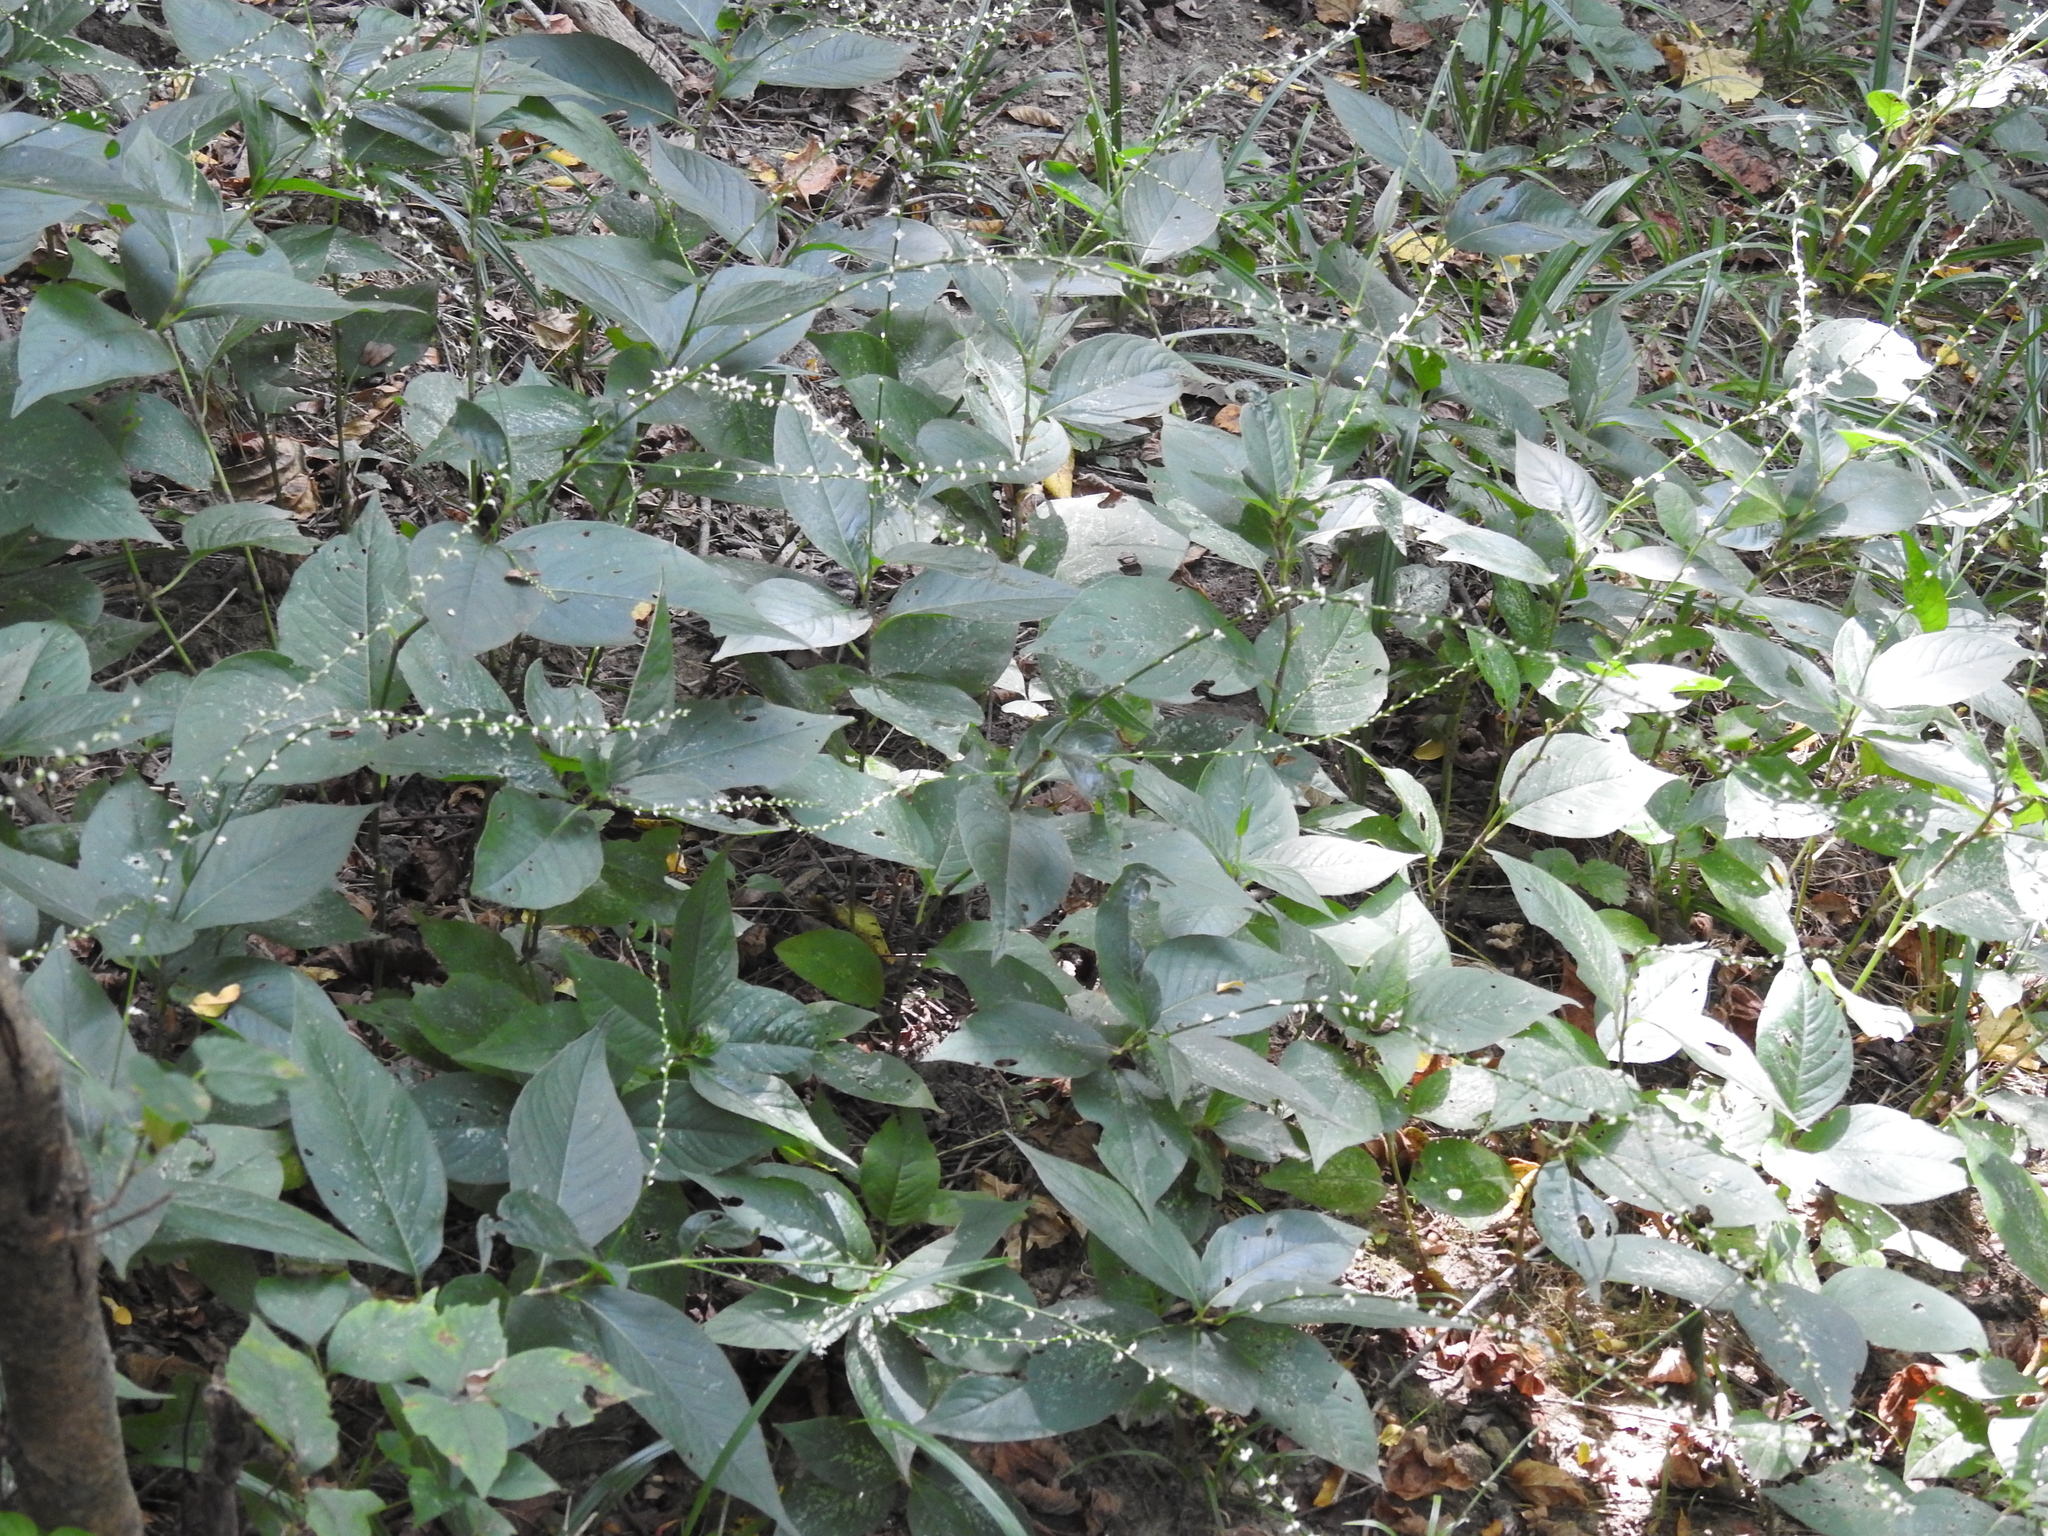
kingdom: Plantae
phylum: Tracheophyta
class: Magnoliopsida
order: Caryophyllales
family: Polygonaceae
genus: Persicaria
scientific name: Persicaria virginiana
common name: Jumpseed
